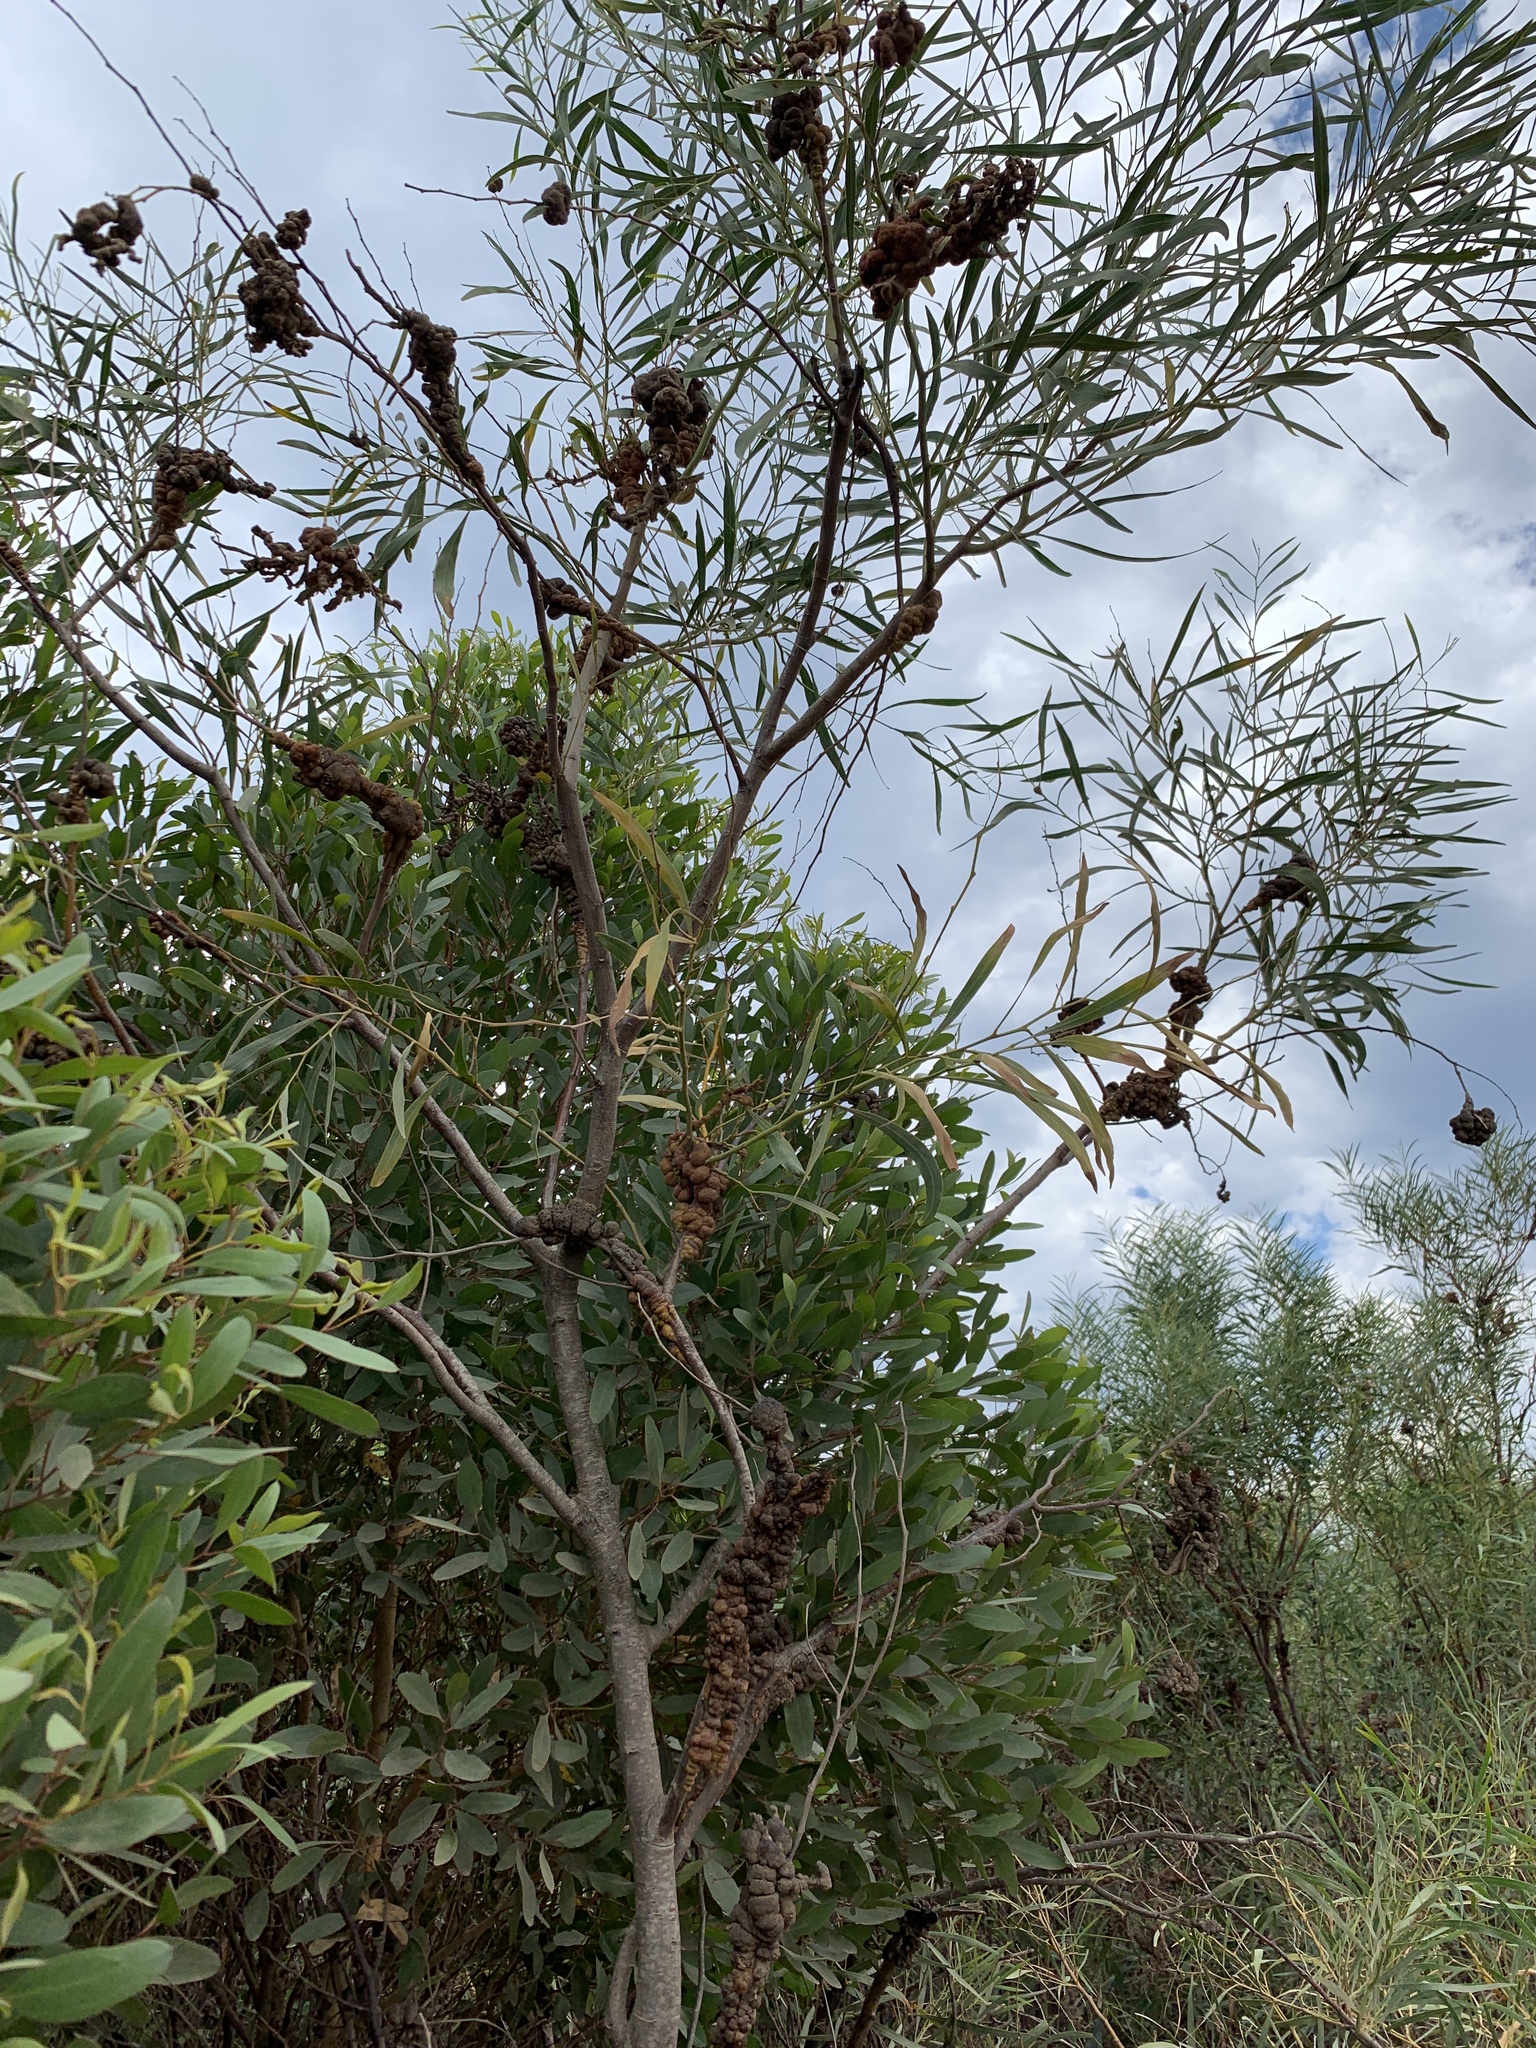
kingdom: Plantae
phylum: Tracheophyta
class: Magnoliopsida
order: Fabales
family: Fabaceae
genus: Acacia
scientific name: Acacia cyclops
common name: Coastal wattle
